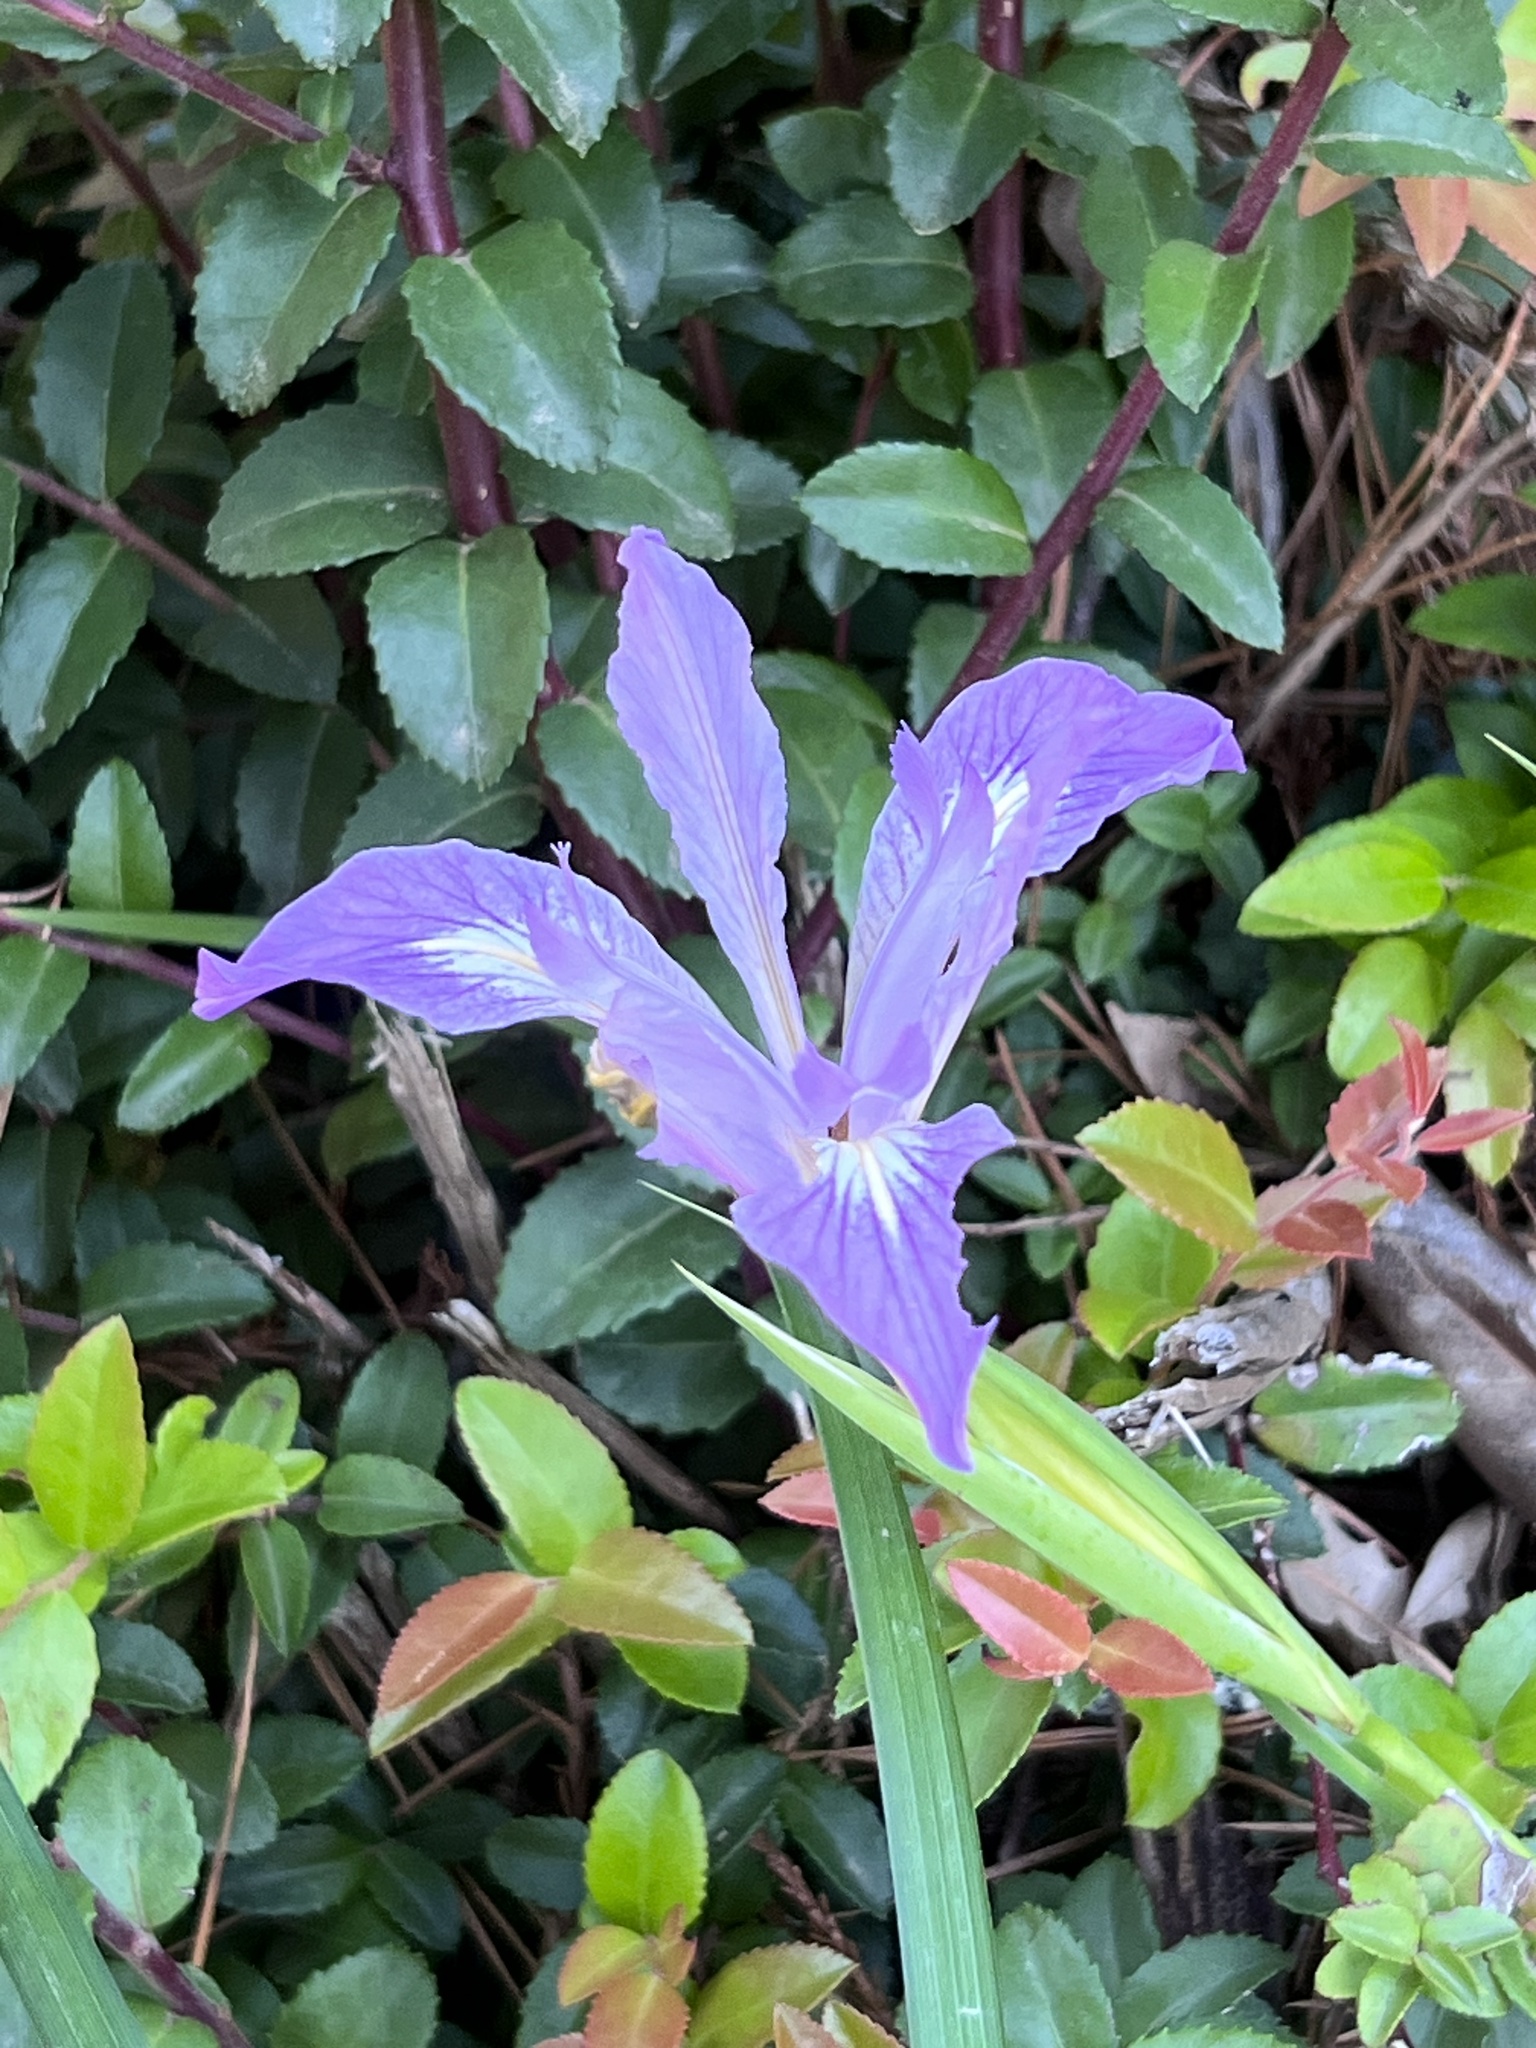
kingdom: Plantae
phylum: Tracheophyta
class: Liliopsida
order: Asparagales
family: Iridaceae
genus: Iris
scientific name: Iris douglasiana
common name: Marin iris
